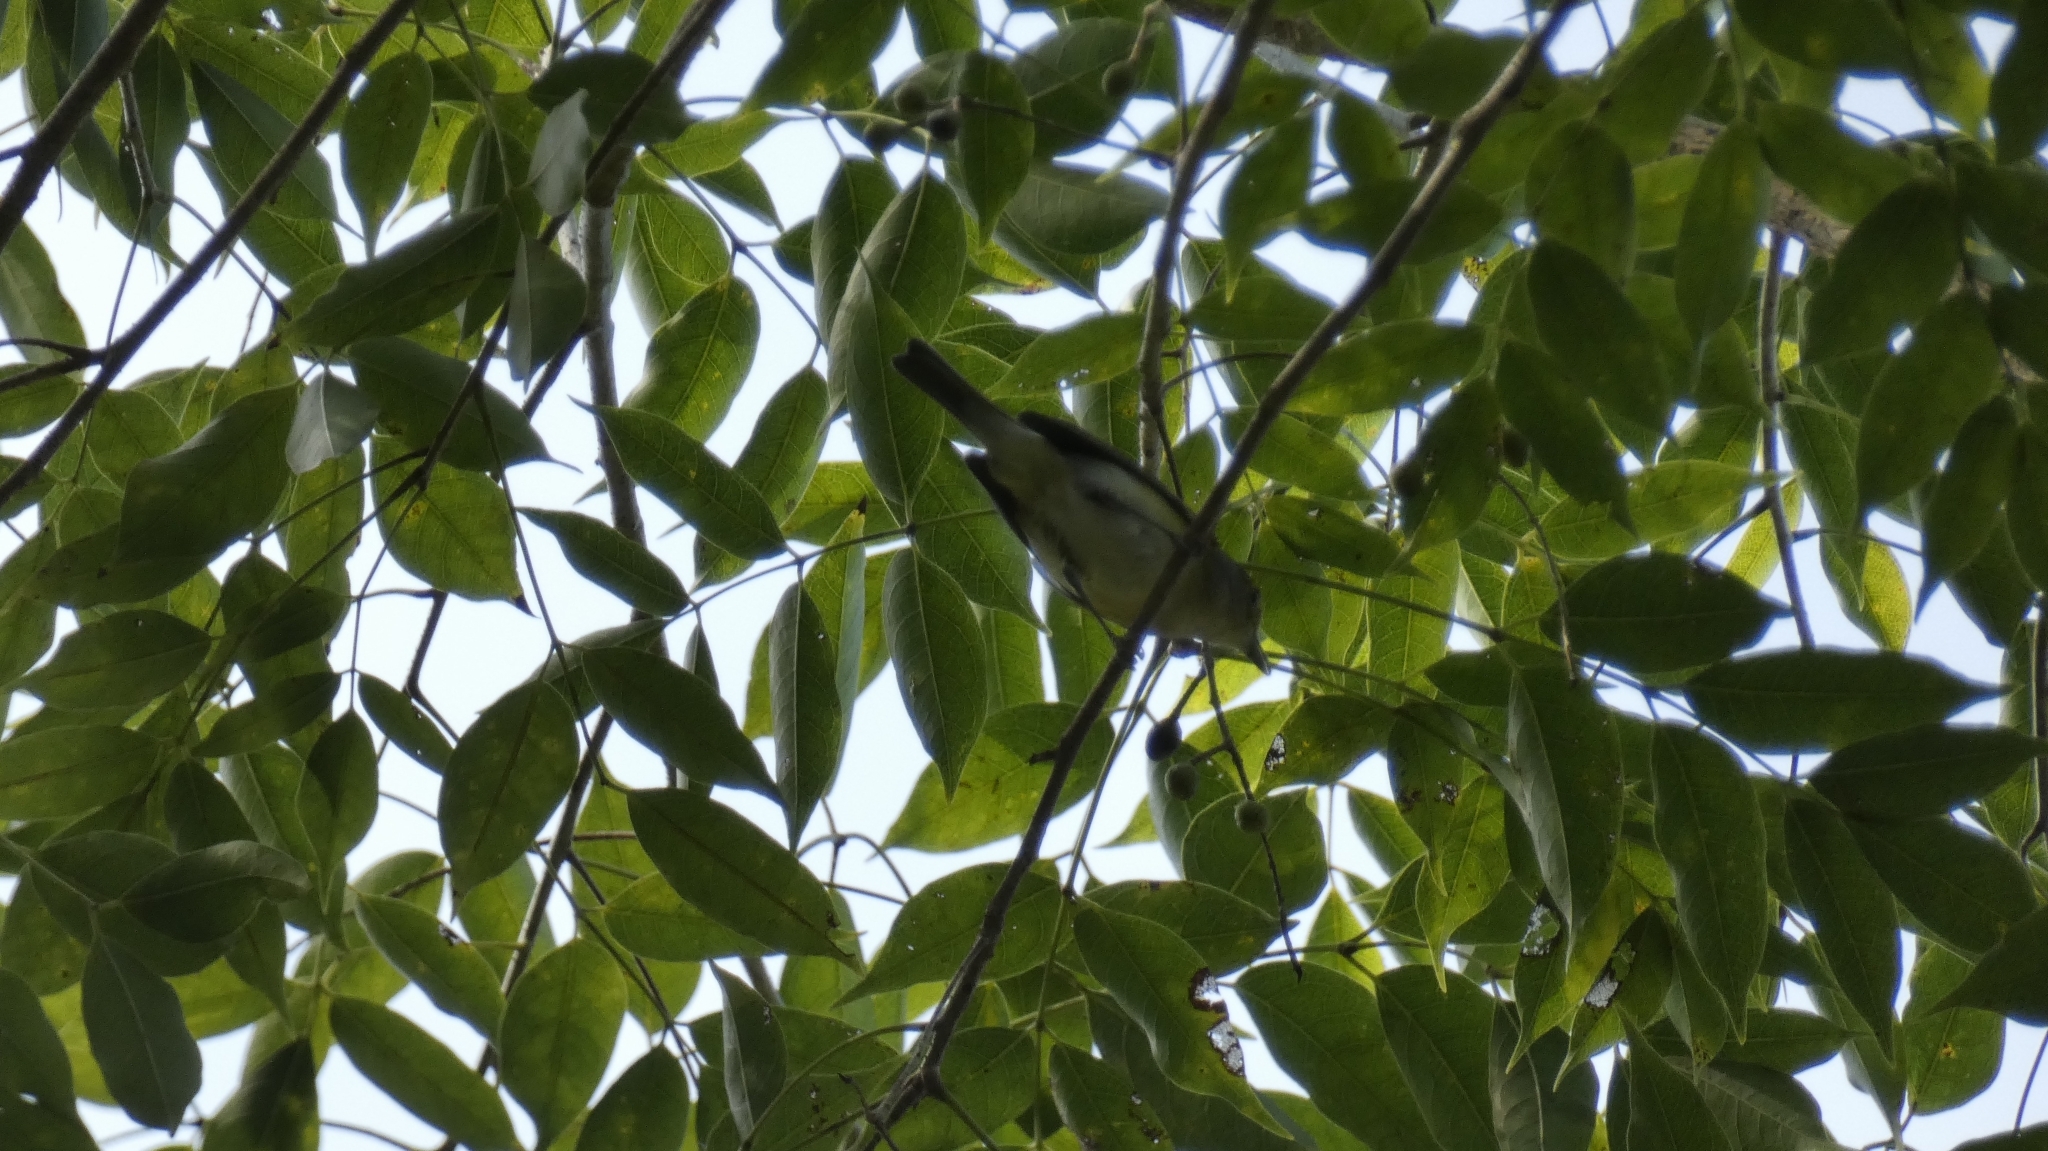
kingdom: Animalia
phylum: Chordata
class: Aves
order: Passeriformes
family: Vireonidae
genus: Vireo
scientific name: Vireo griseus
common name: White-eyed vireo
